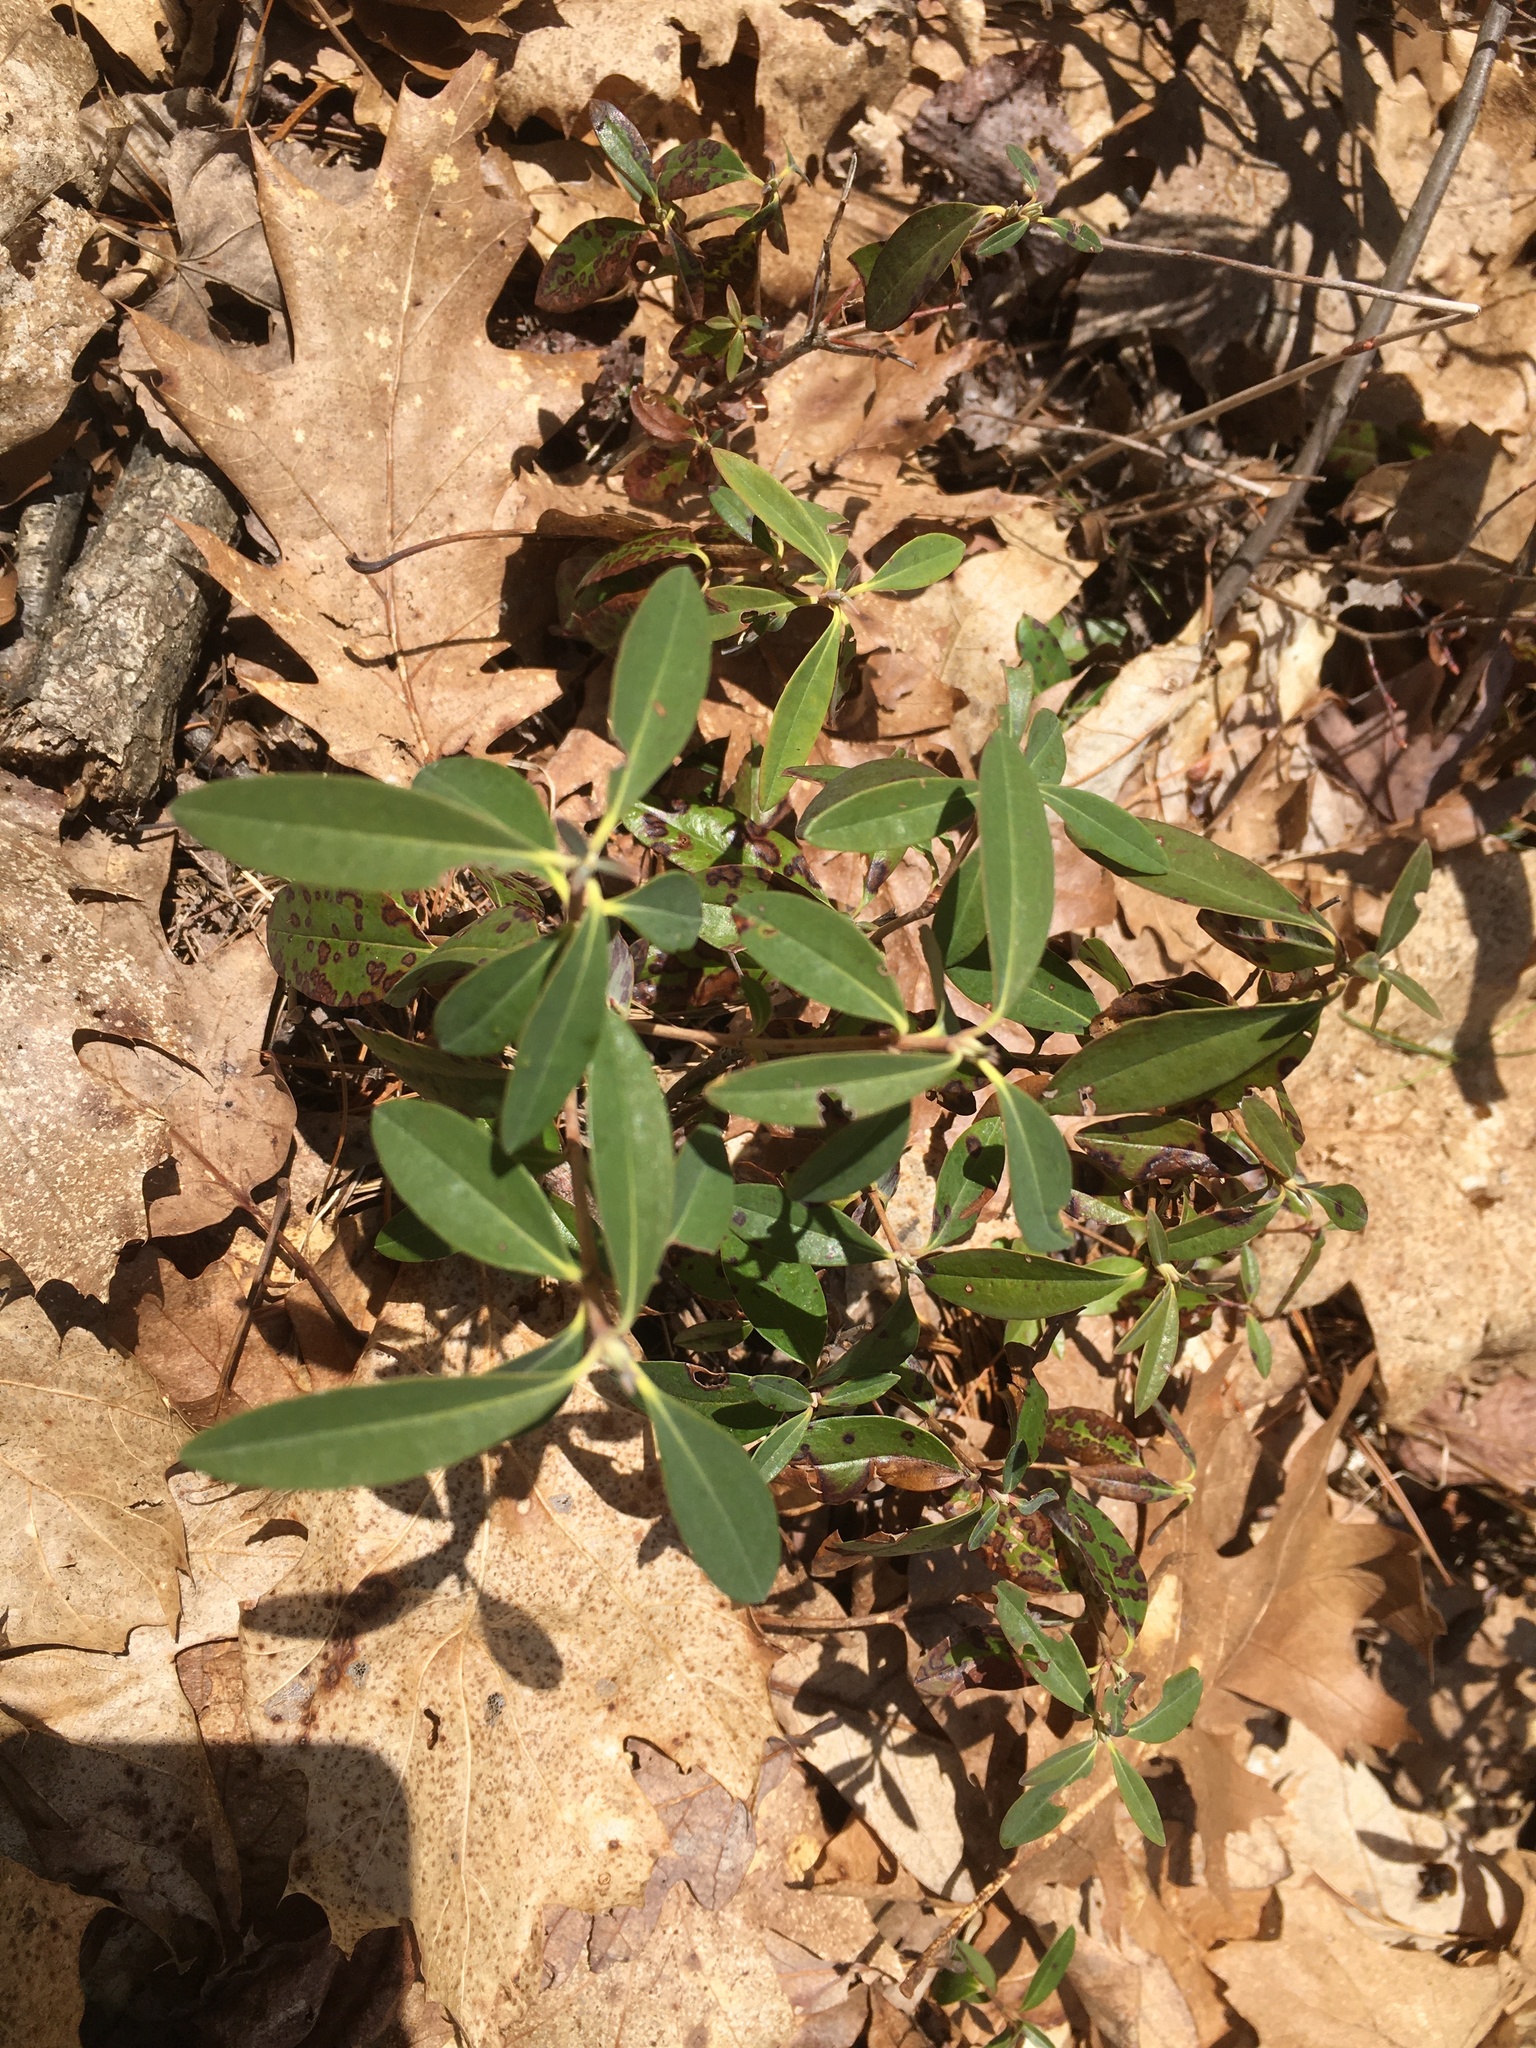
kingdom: Plantae
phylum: Tracheophyta
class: Magnoliopsida
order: Ericales
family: Ericaceae
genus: Kalmia
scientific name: Kalmia angustifolia
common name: Sheep-laurel
